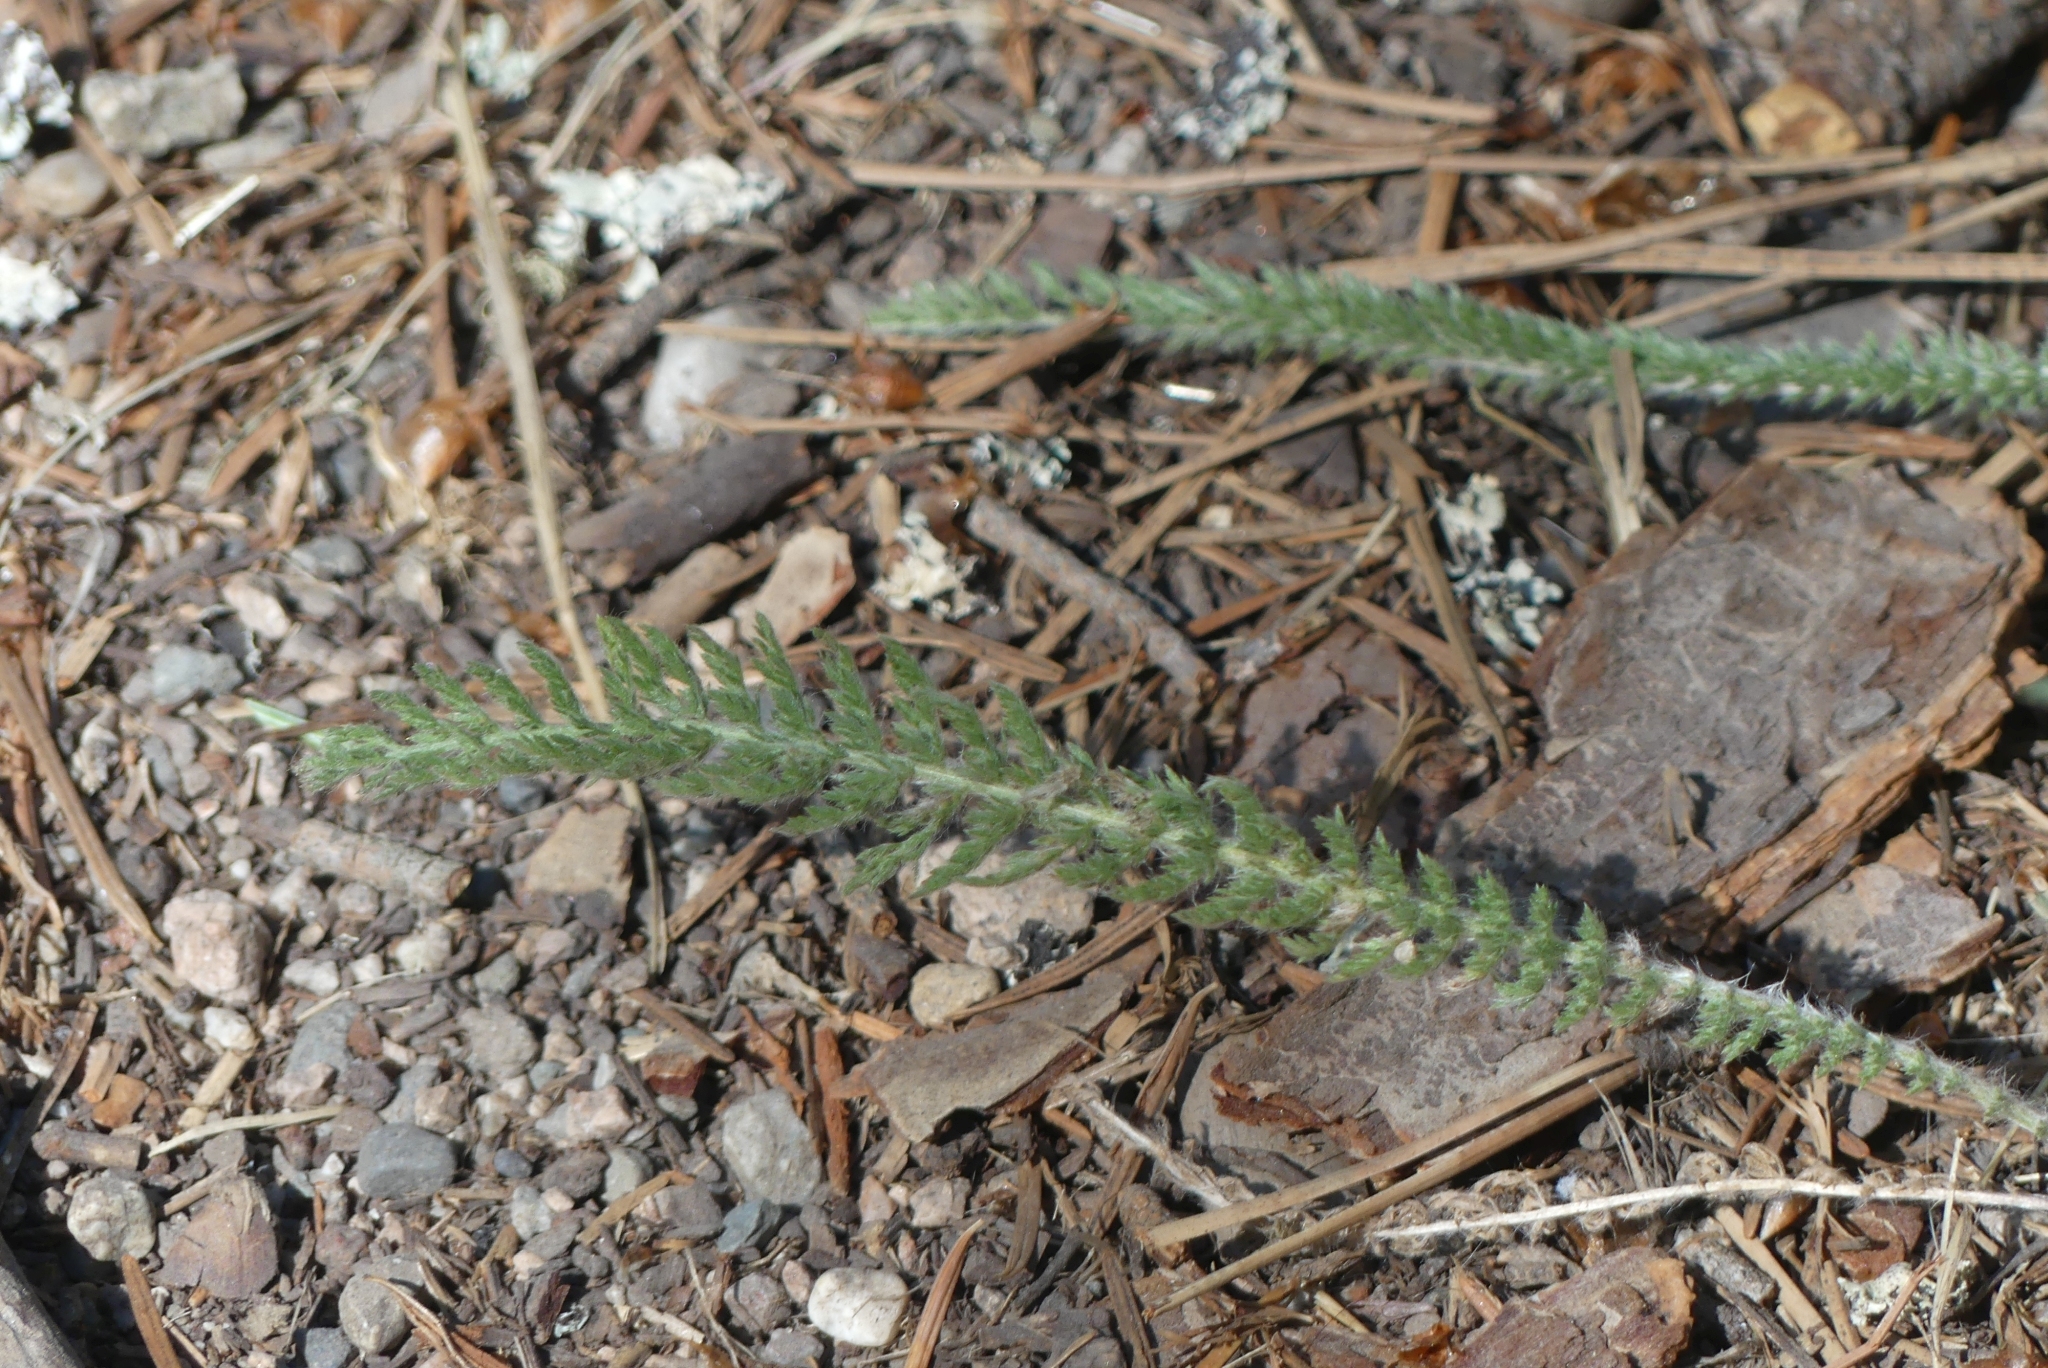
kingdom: Plantae
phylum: Tracheophyta
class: Magnoliopsida
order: Asterales
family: Asteraceae
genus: Achillea
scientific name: Achillea millefolium
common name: Yarrow
